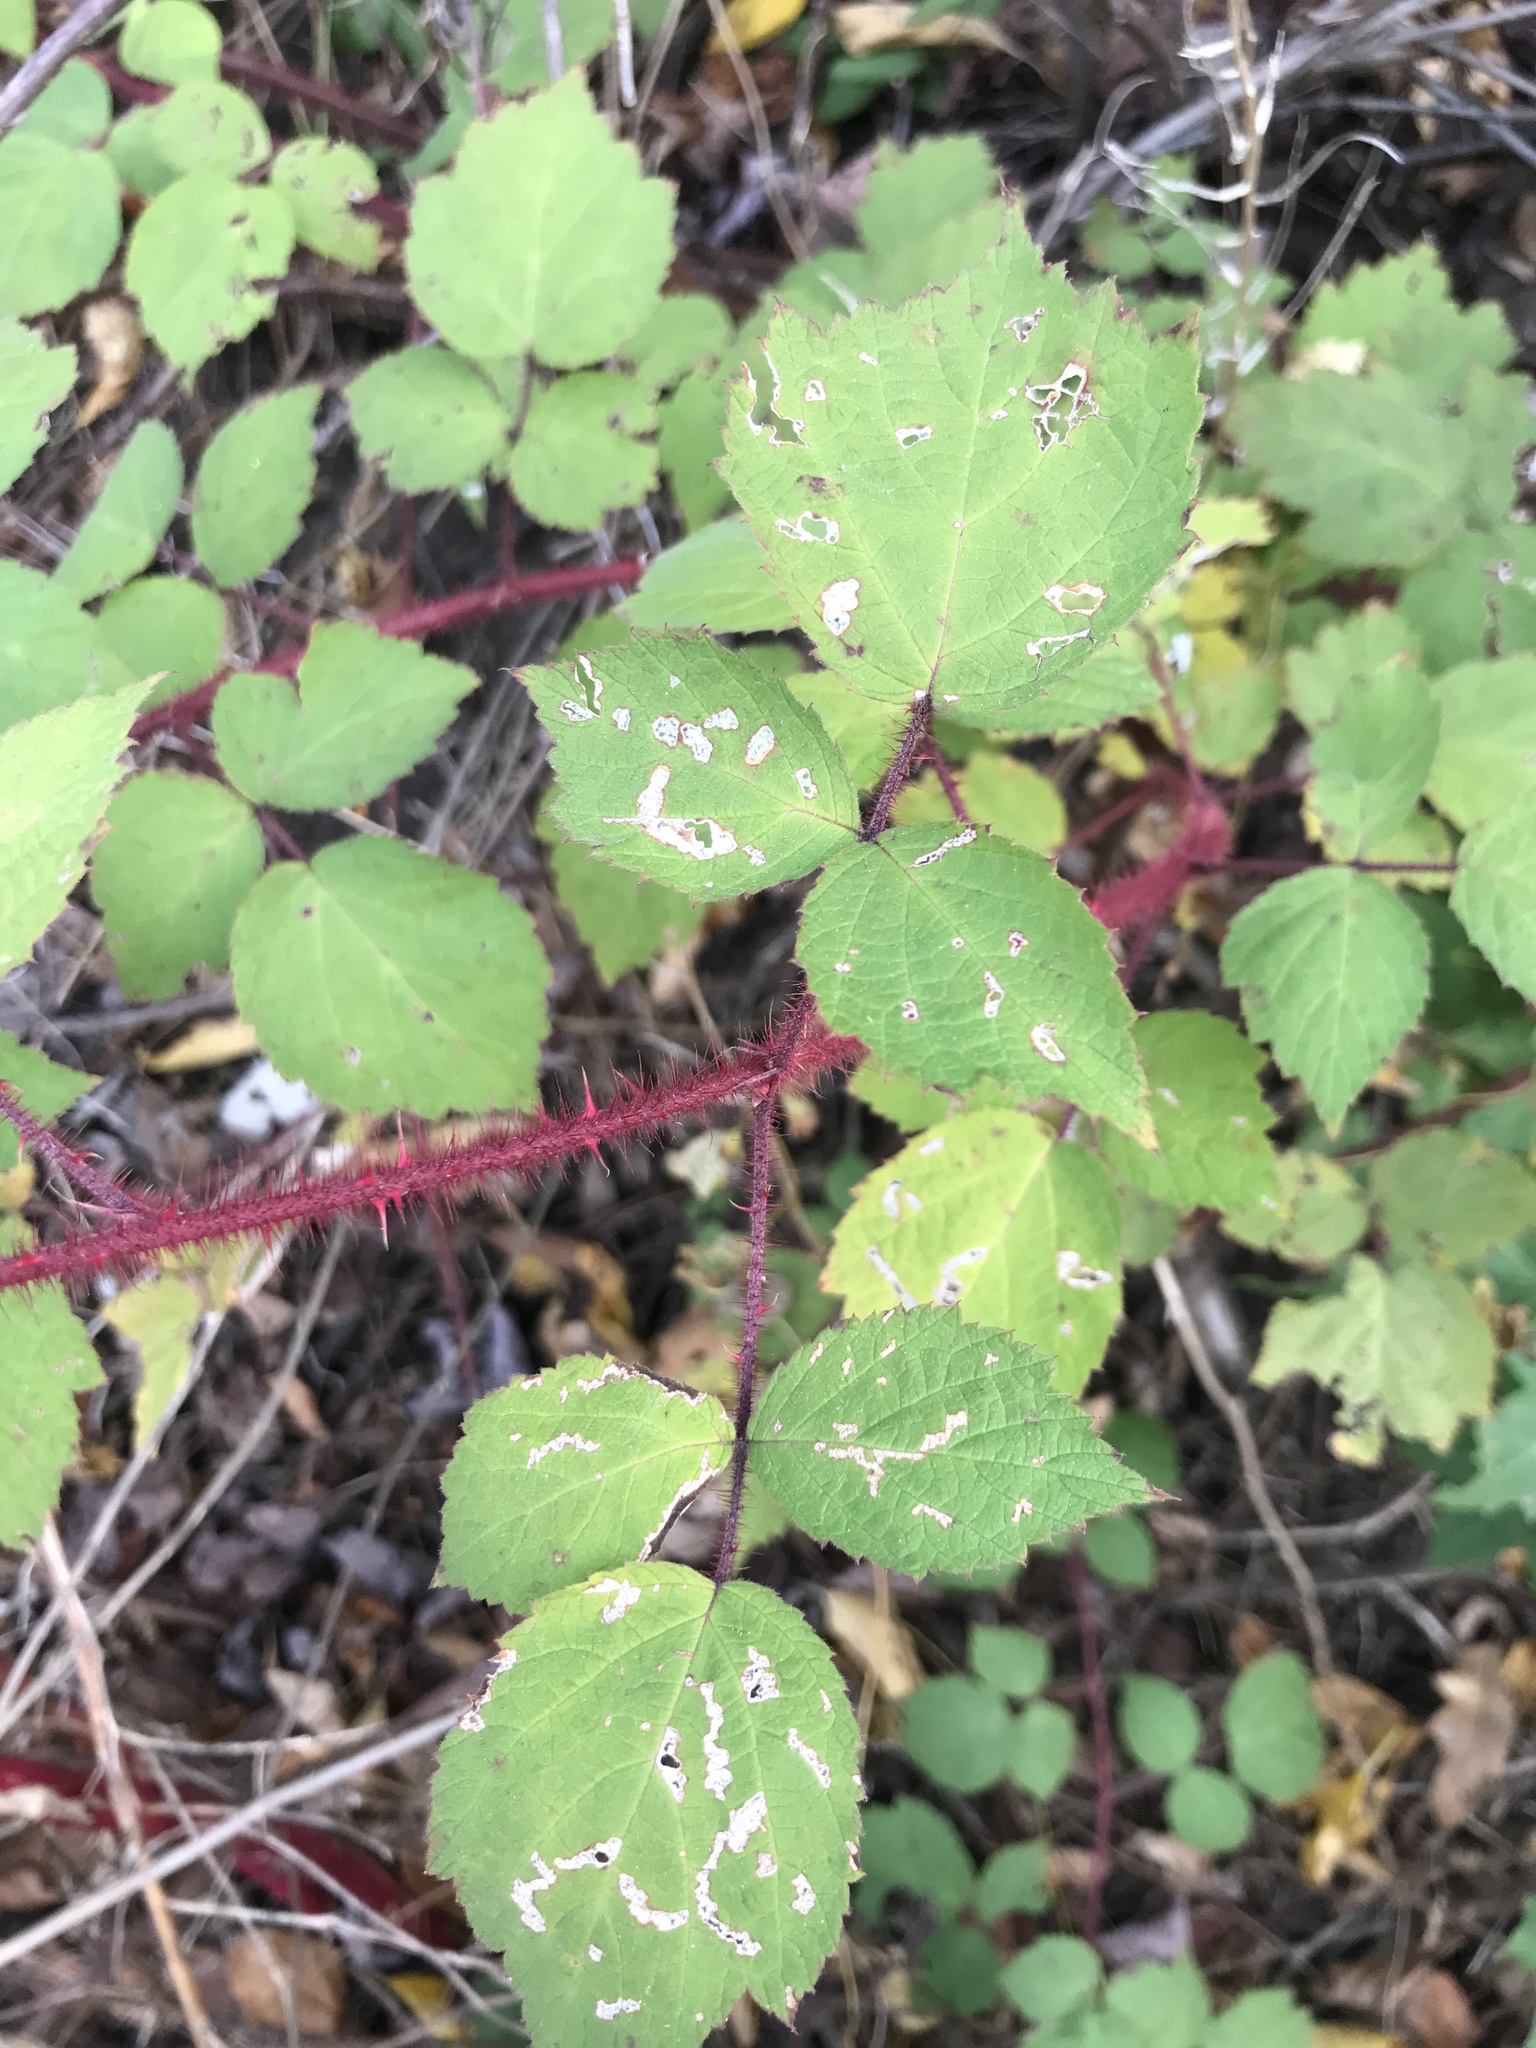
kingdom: Plantae
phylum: Tracheophyta
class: Magnoliopsida
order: Rosales
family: Rosaceae
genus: Rubus
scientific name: Rubus phoenicolasius
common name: Japanese wineberry
